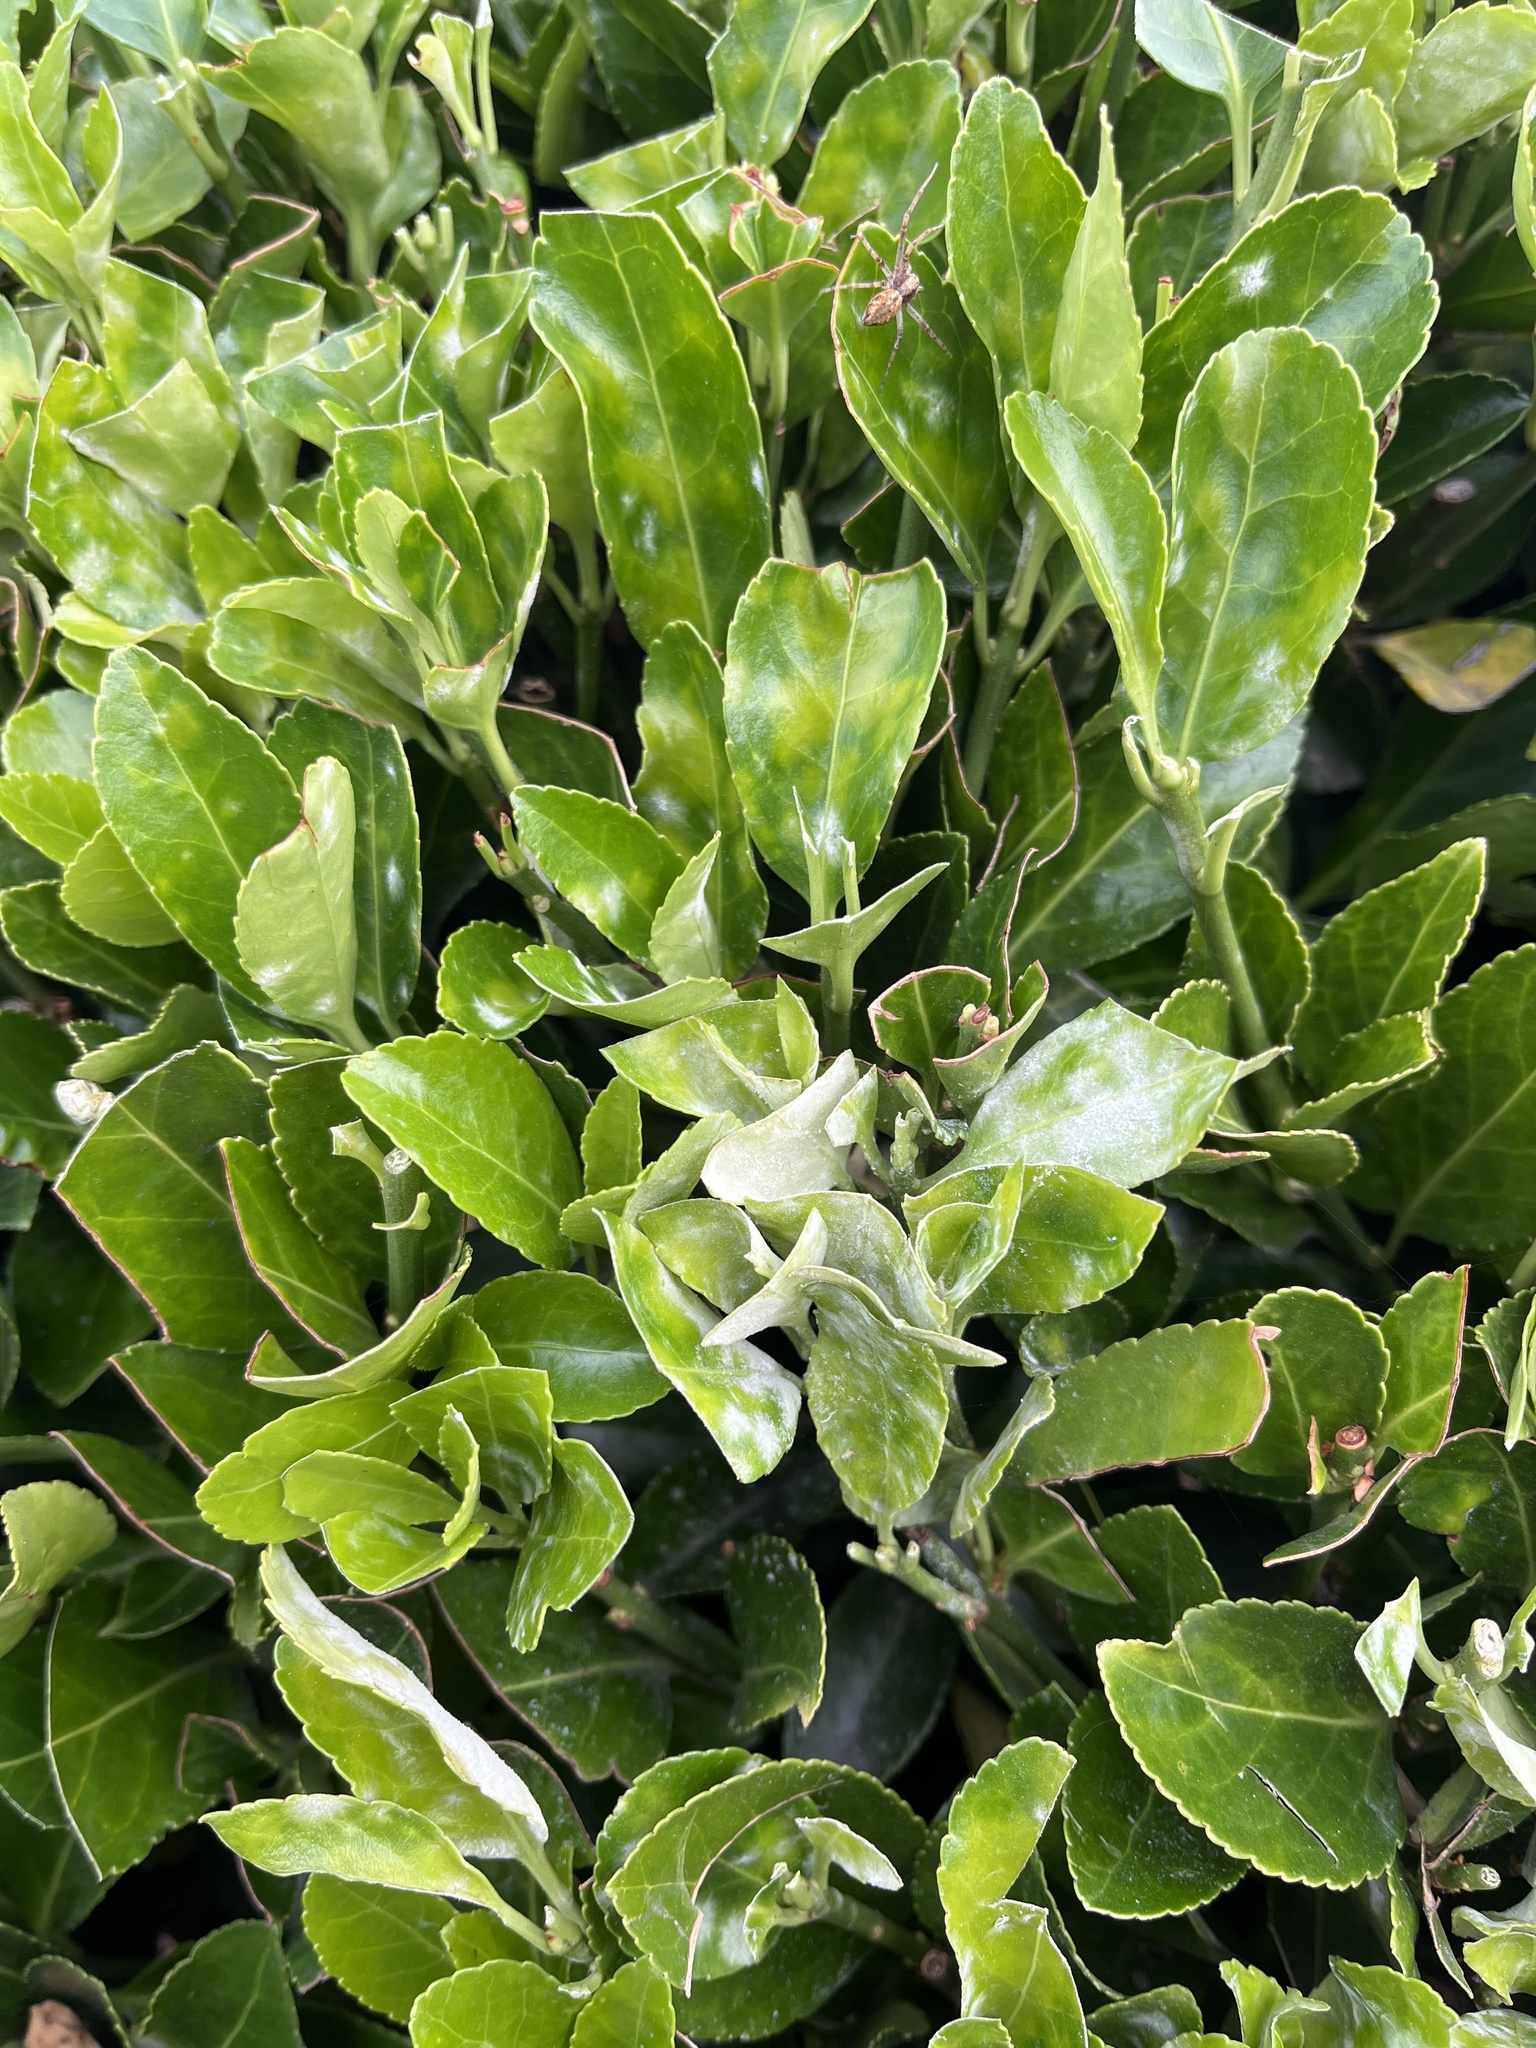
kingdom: Fungi
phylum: Ascomycota
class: Leotiomycetes
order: Helotiales
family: Erysiphaceae
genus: Erysiphe
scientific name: Erysiphe euonymicola
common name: Spindletree mildew
